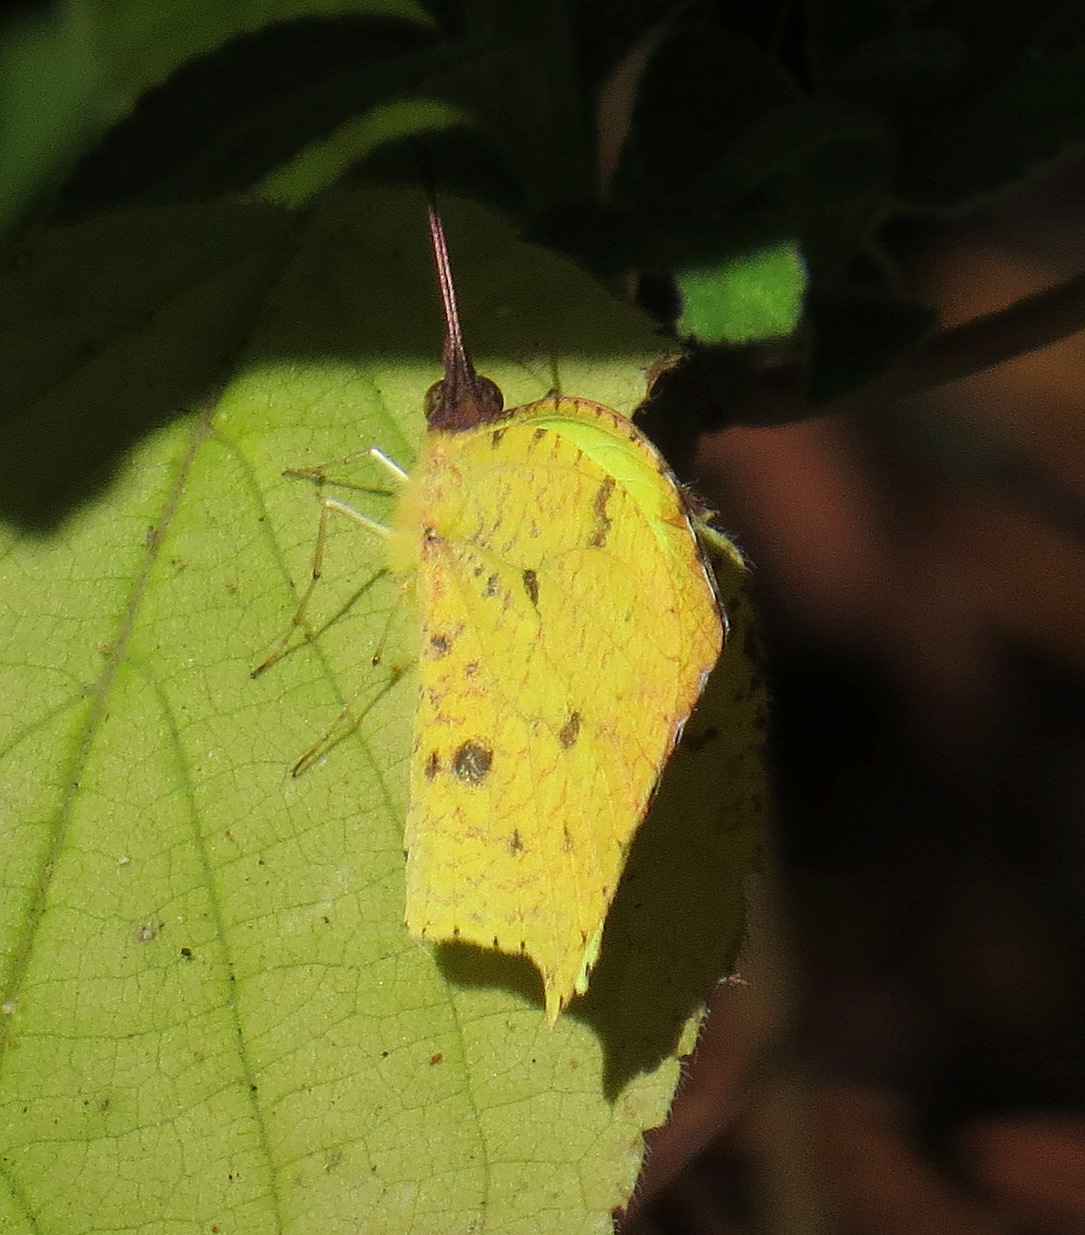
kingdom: Animalia
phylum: Arthropoda
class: Insecta
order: Lepidoptera
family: Pieridae
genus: Abaeis
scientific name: Abaeis salome
